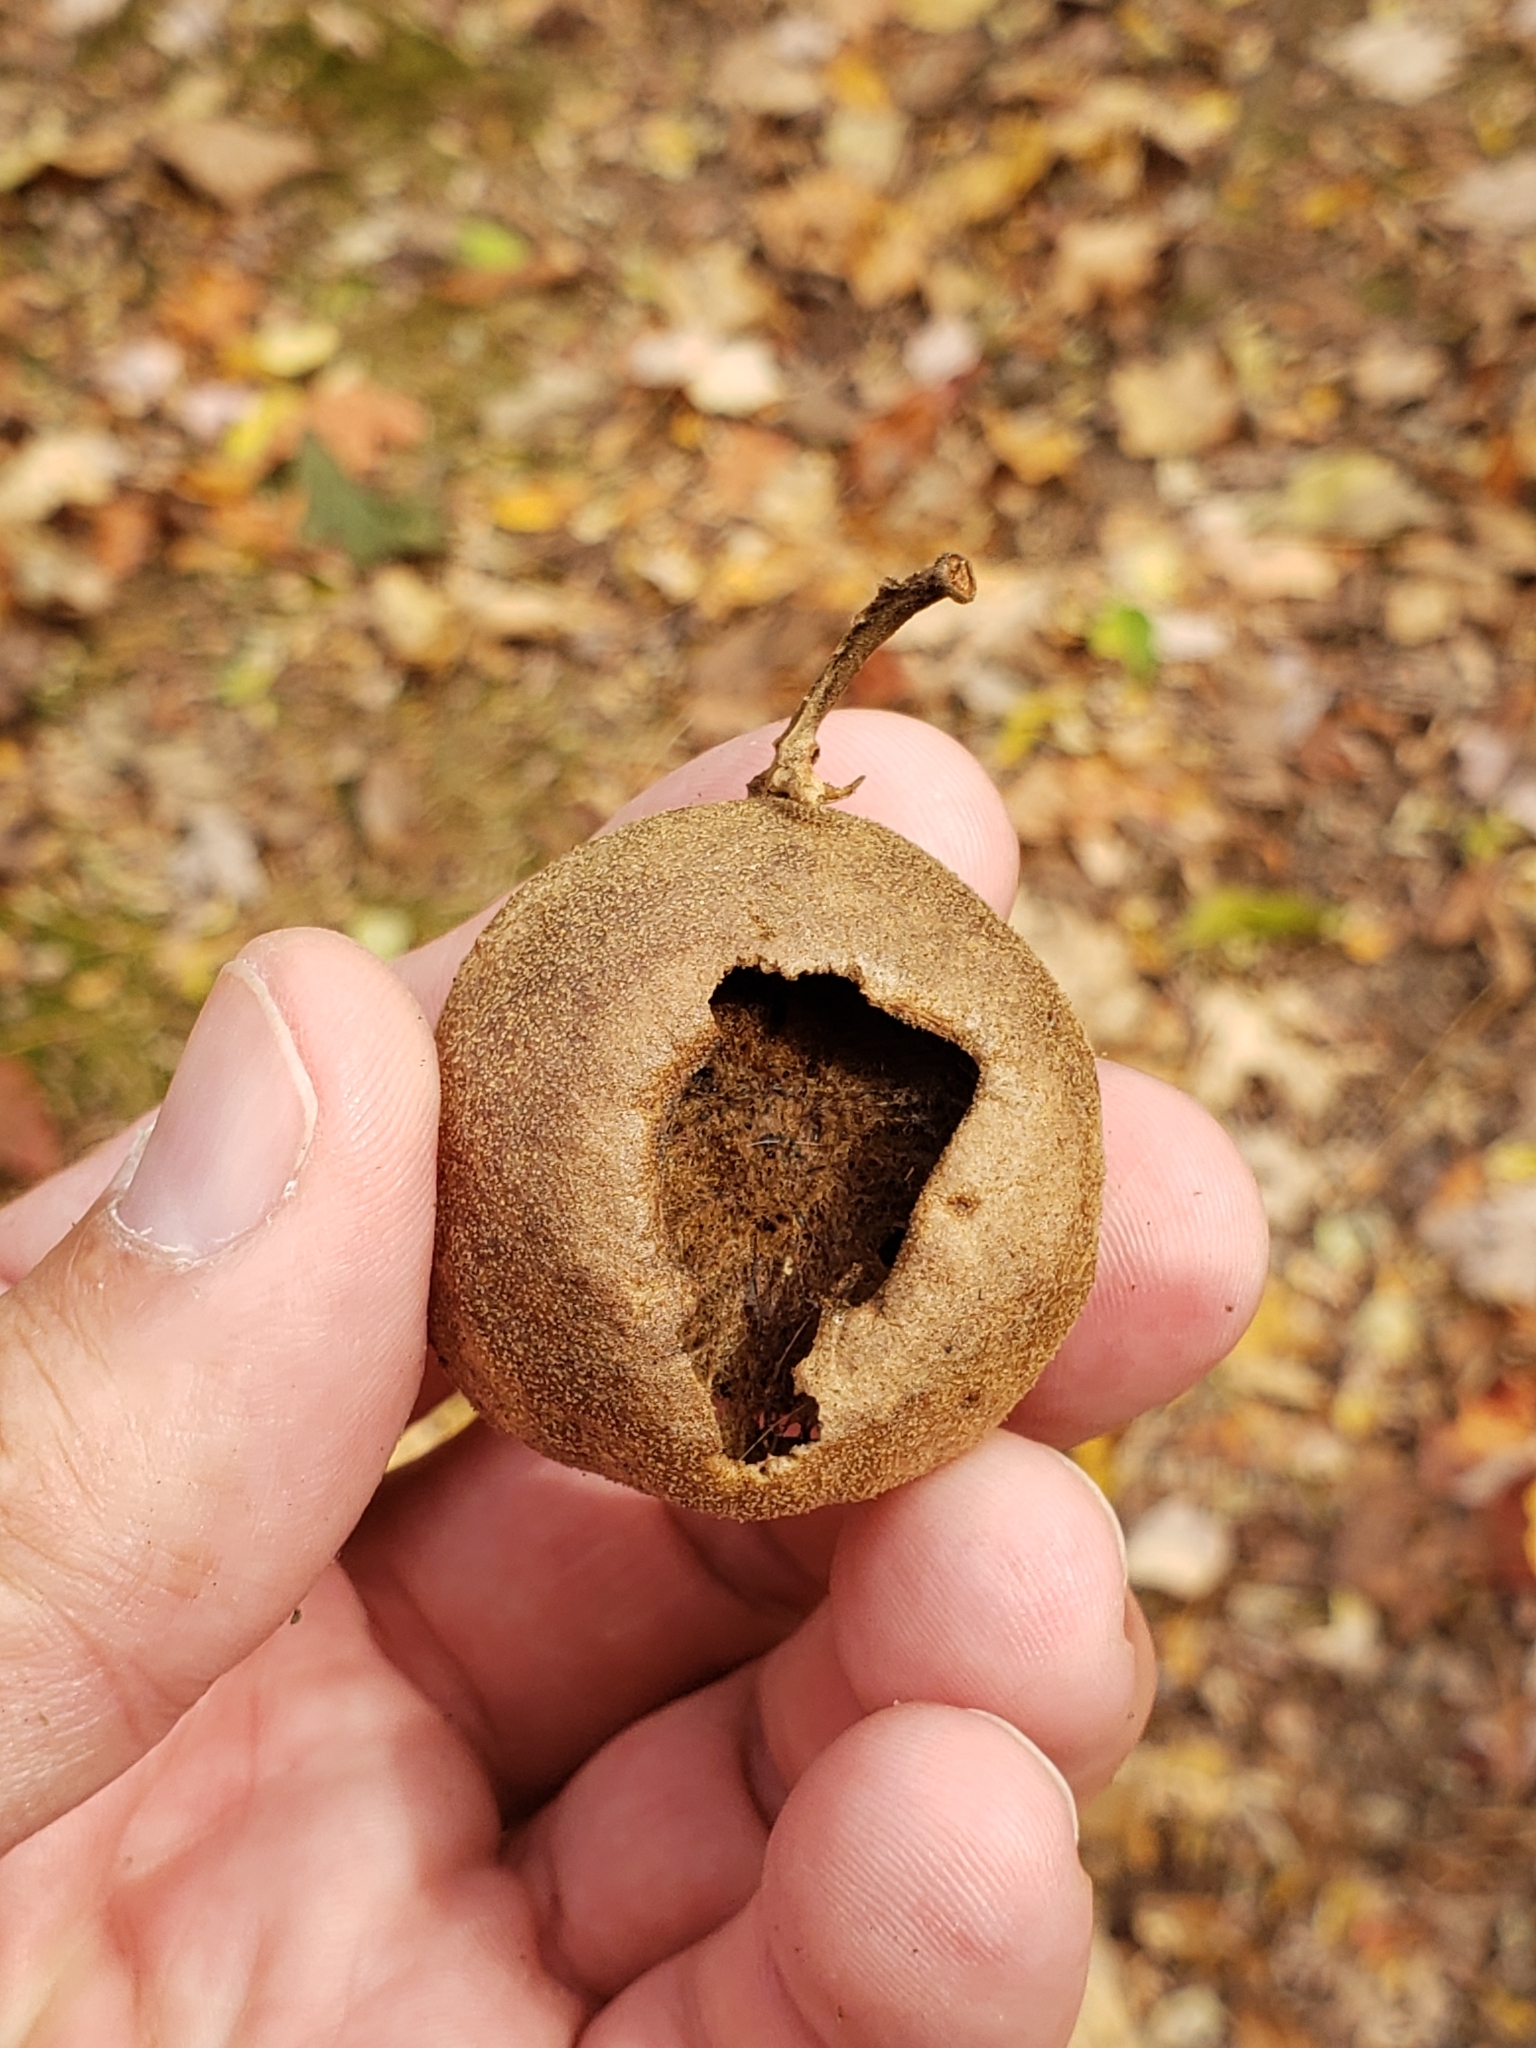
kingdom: Animalia
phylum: Arthropoda
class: Insecta
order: Hymenoptera
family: Cynipidae
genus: Amphibolips
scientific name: Amphibolips
